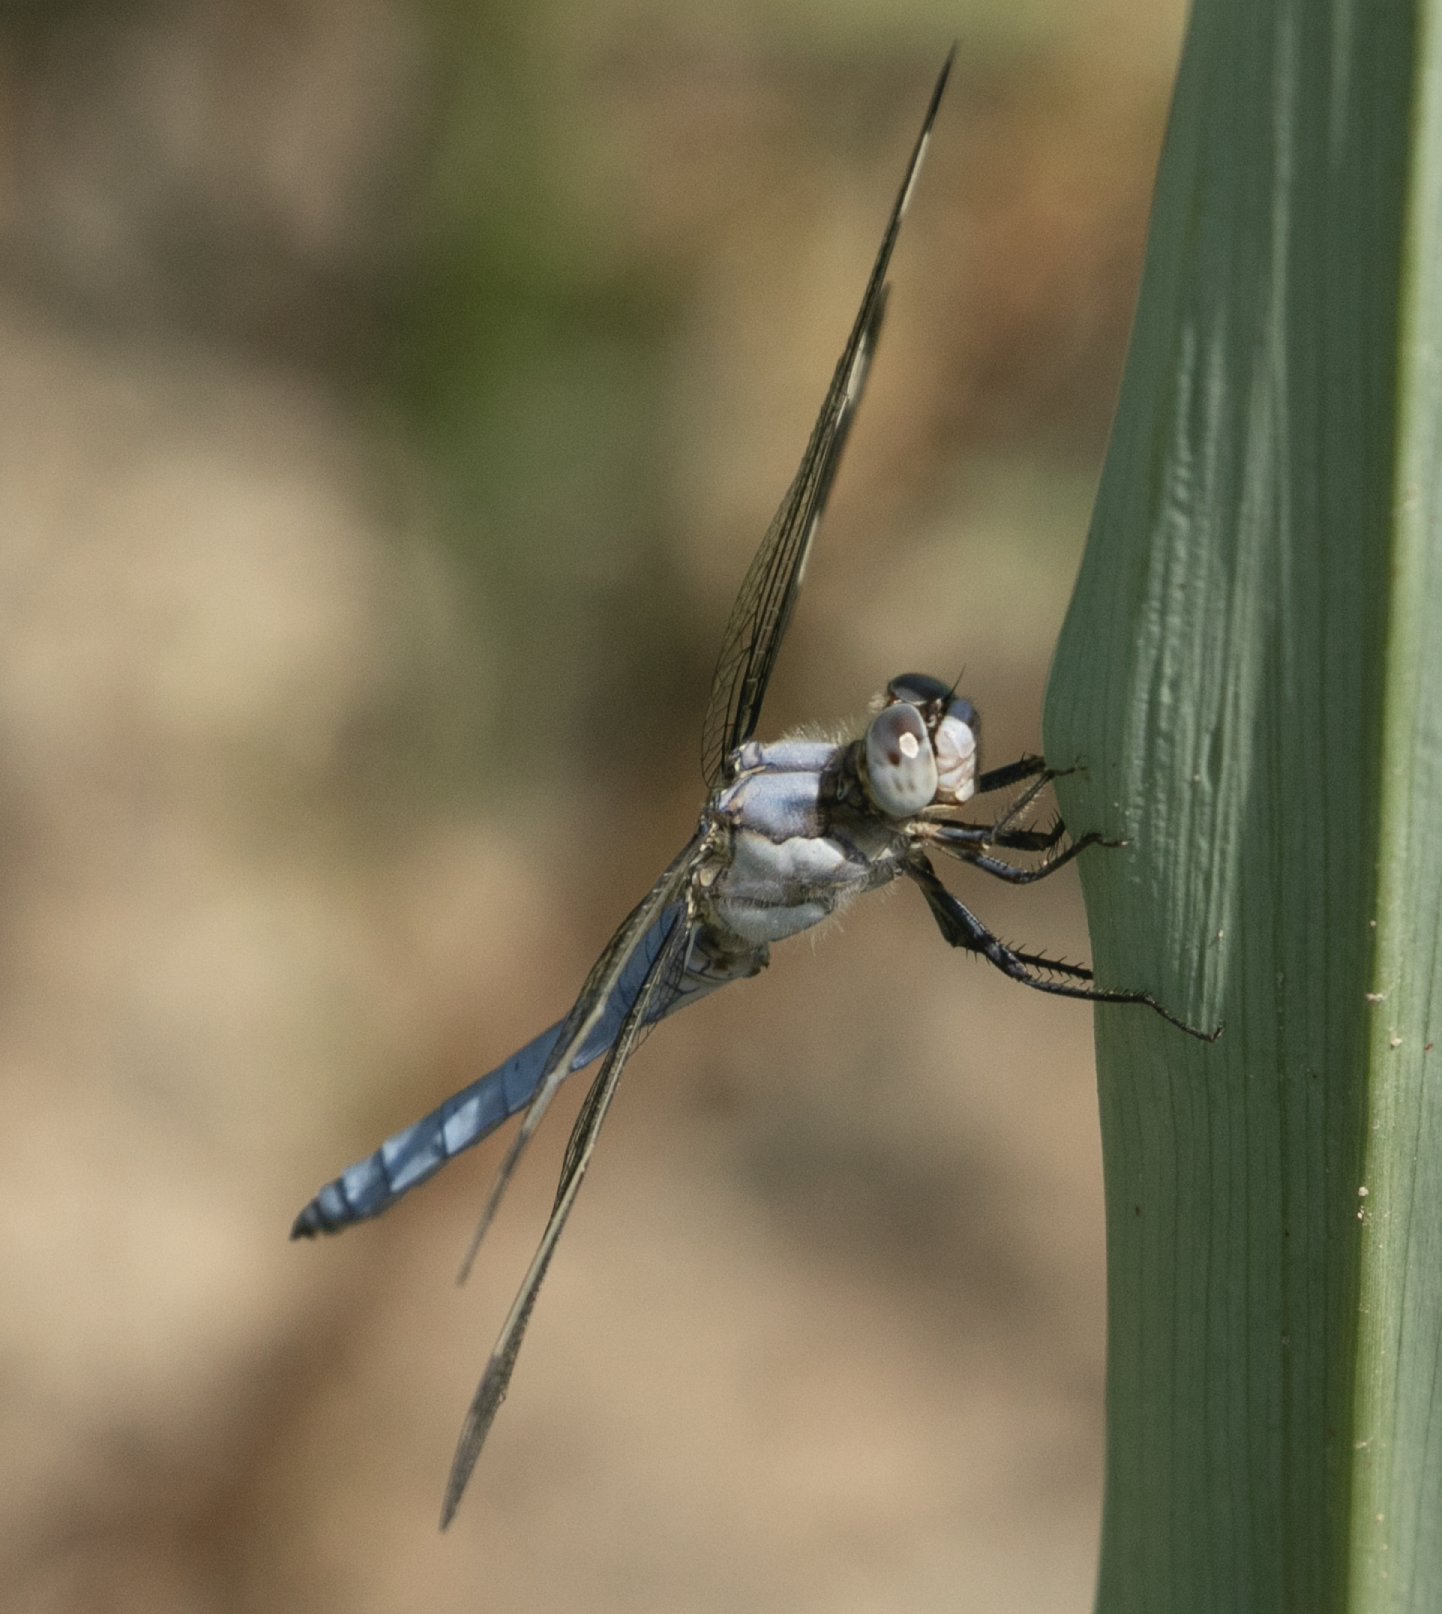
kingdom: Animalia
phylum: Arthropoda
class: Insecta
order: Odonata
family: Libellulidae
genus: Orthetrum
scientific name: Orthetrum brunneum
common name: Southern skimmer
